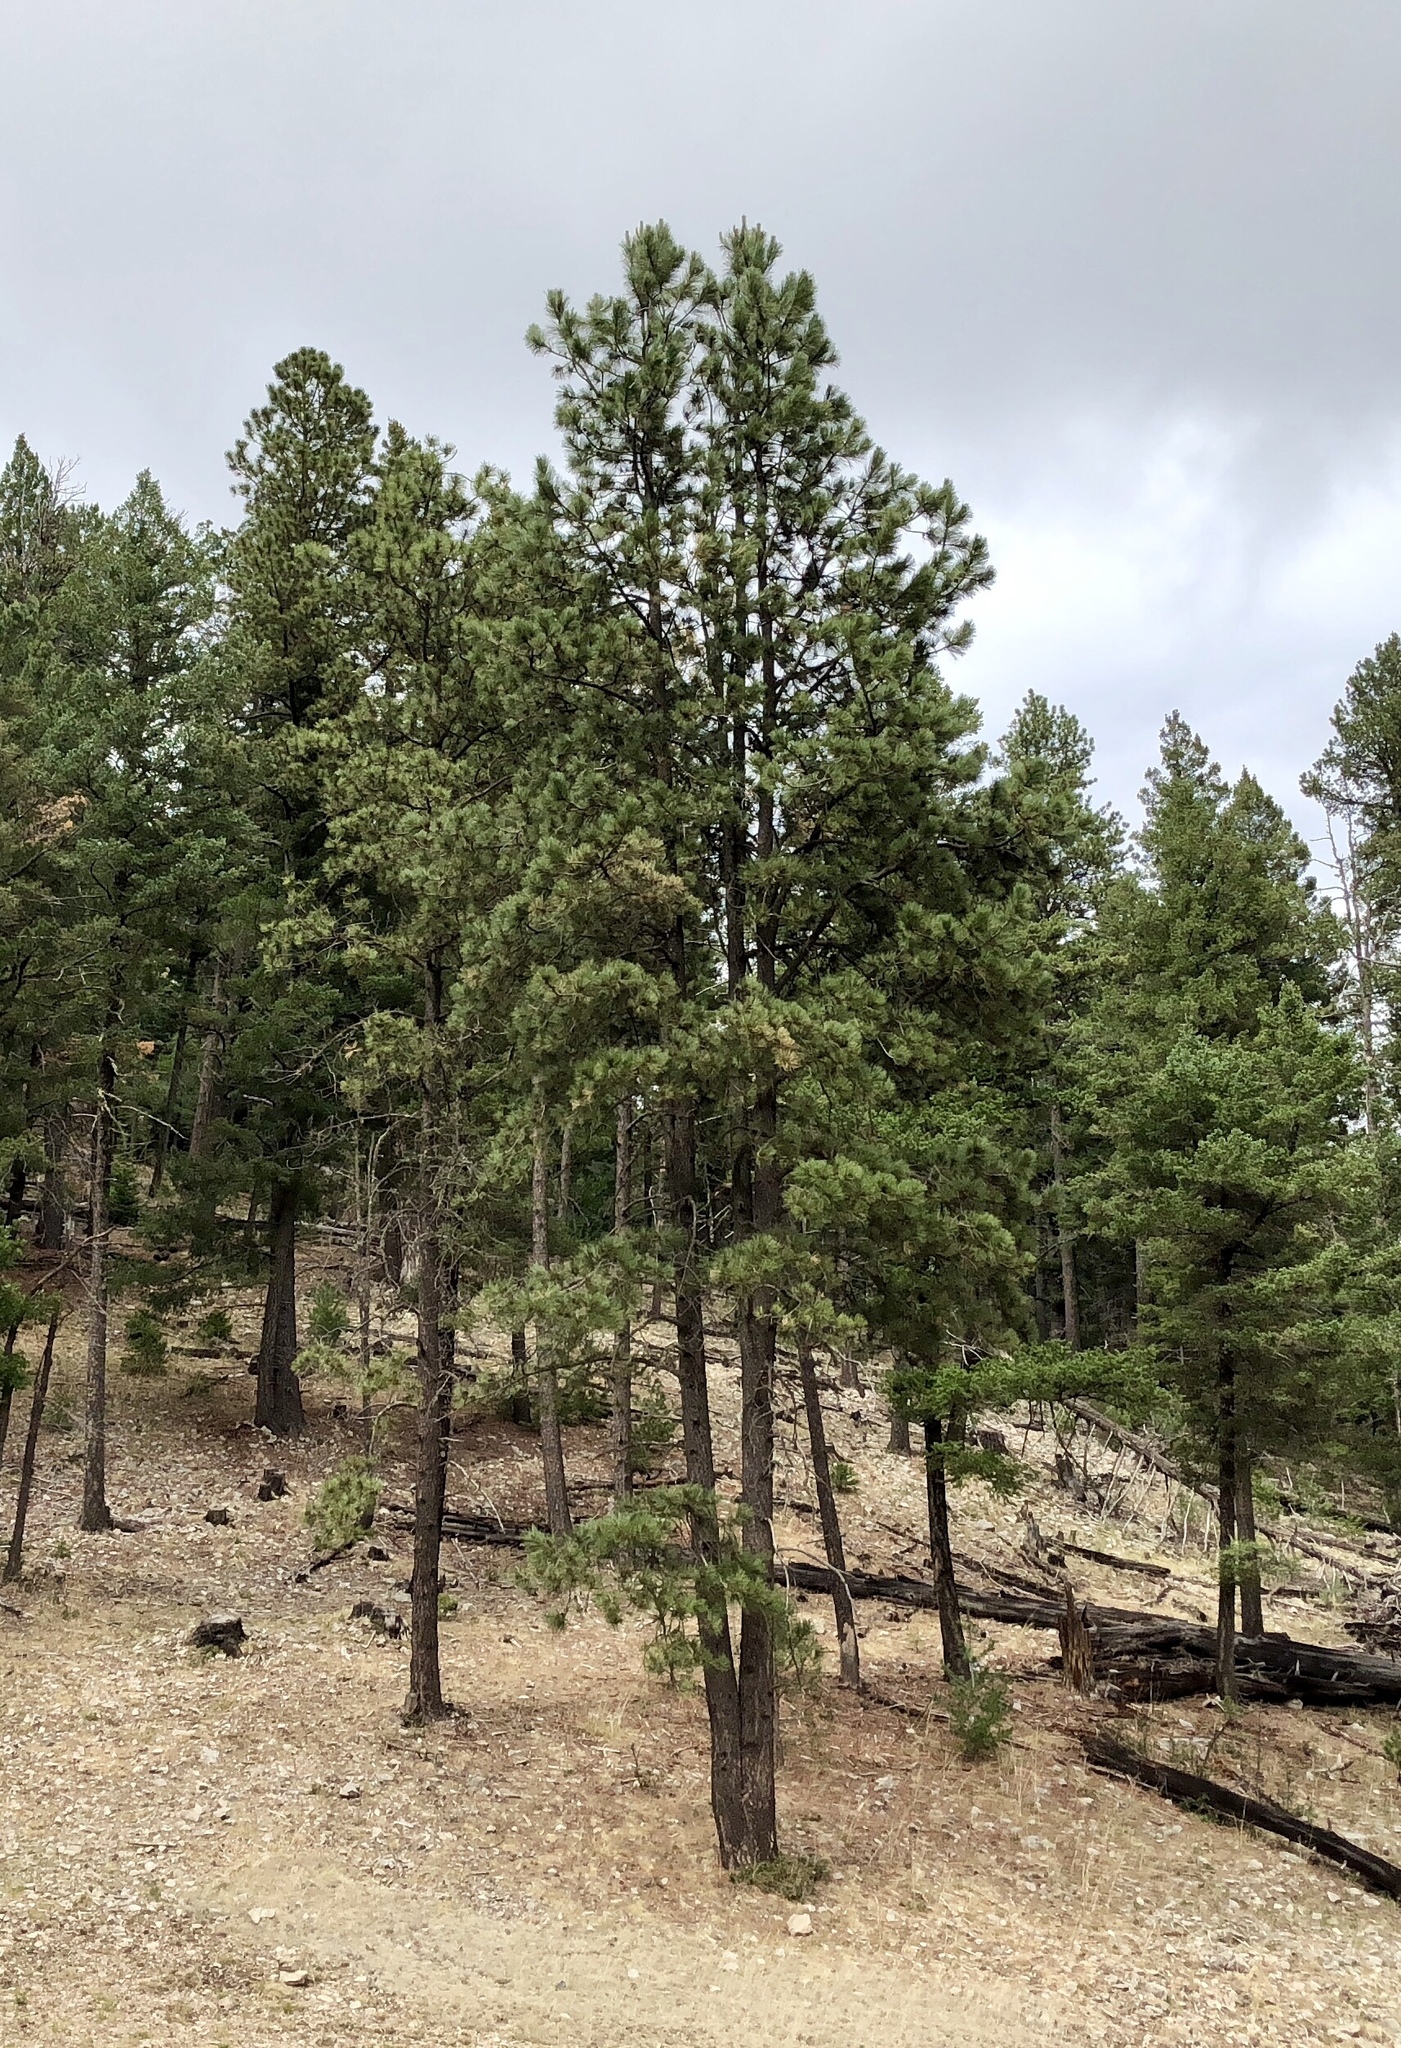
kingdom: Plantae
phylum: Tracheophyta
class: Pinopsida
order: Pinales
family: Pinaceae
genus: Pinus
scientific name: Pinus ponderosa
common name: Western yellow-pine
